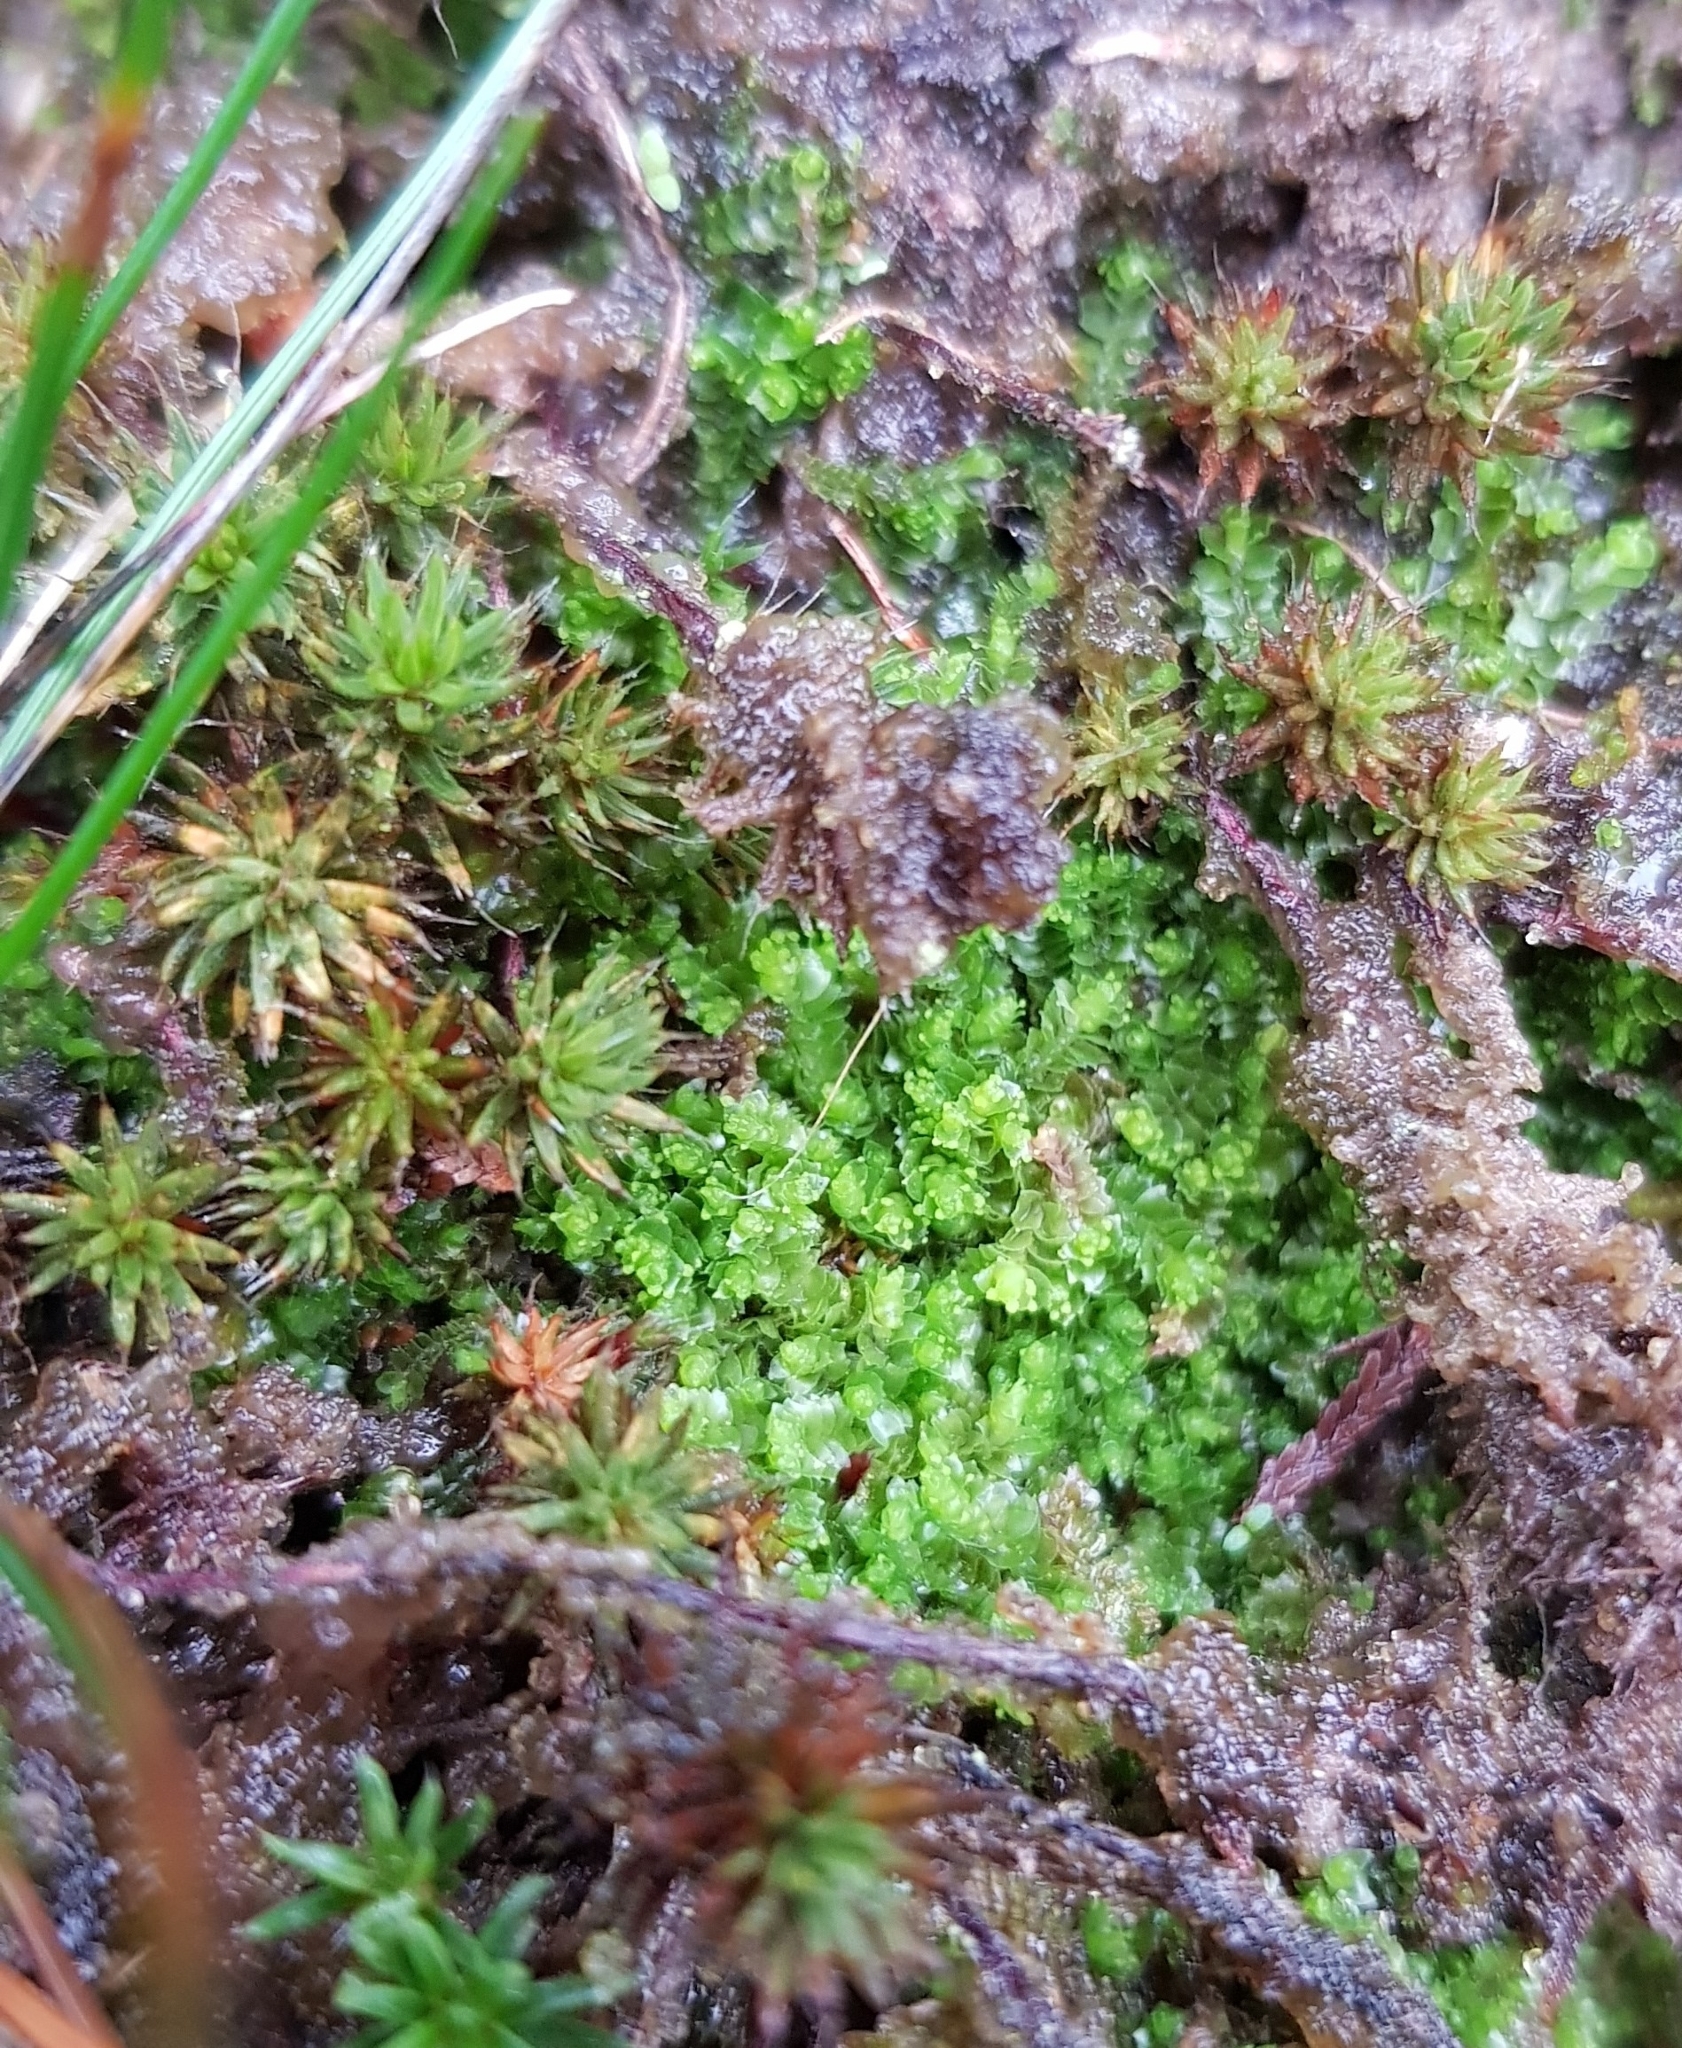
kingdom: Plantae
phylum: Marchantiophyta
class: Jungermanniopsida
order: Jungermanniales
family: Lophoziaceae
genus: Lophozia
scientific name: Lophozia ventricosa
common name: Tumid notchwort
